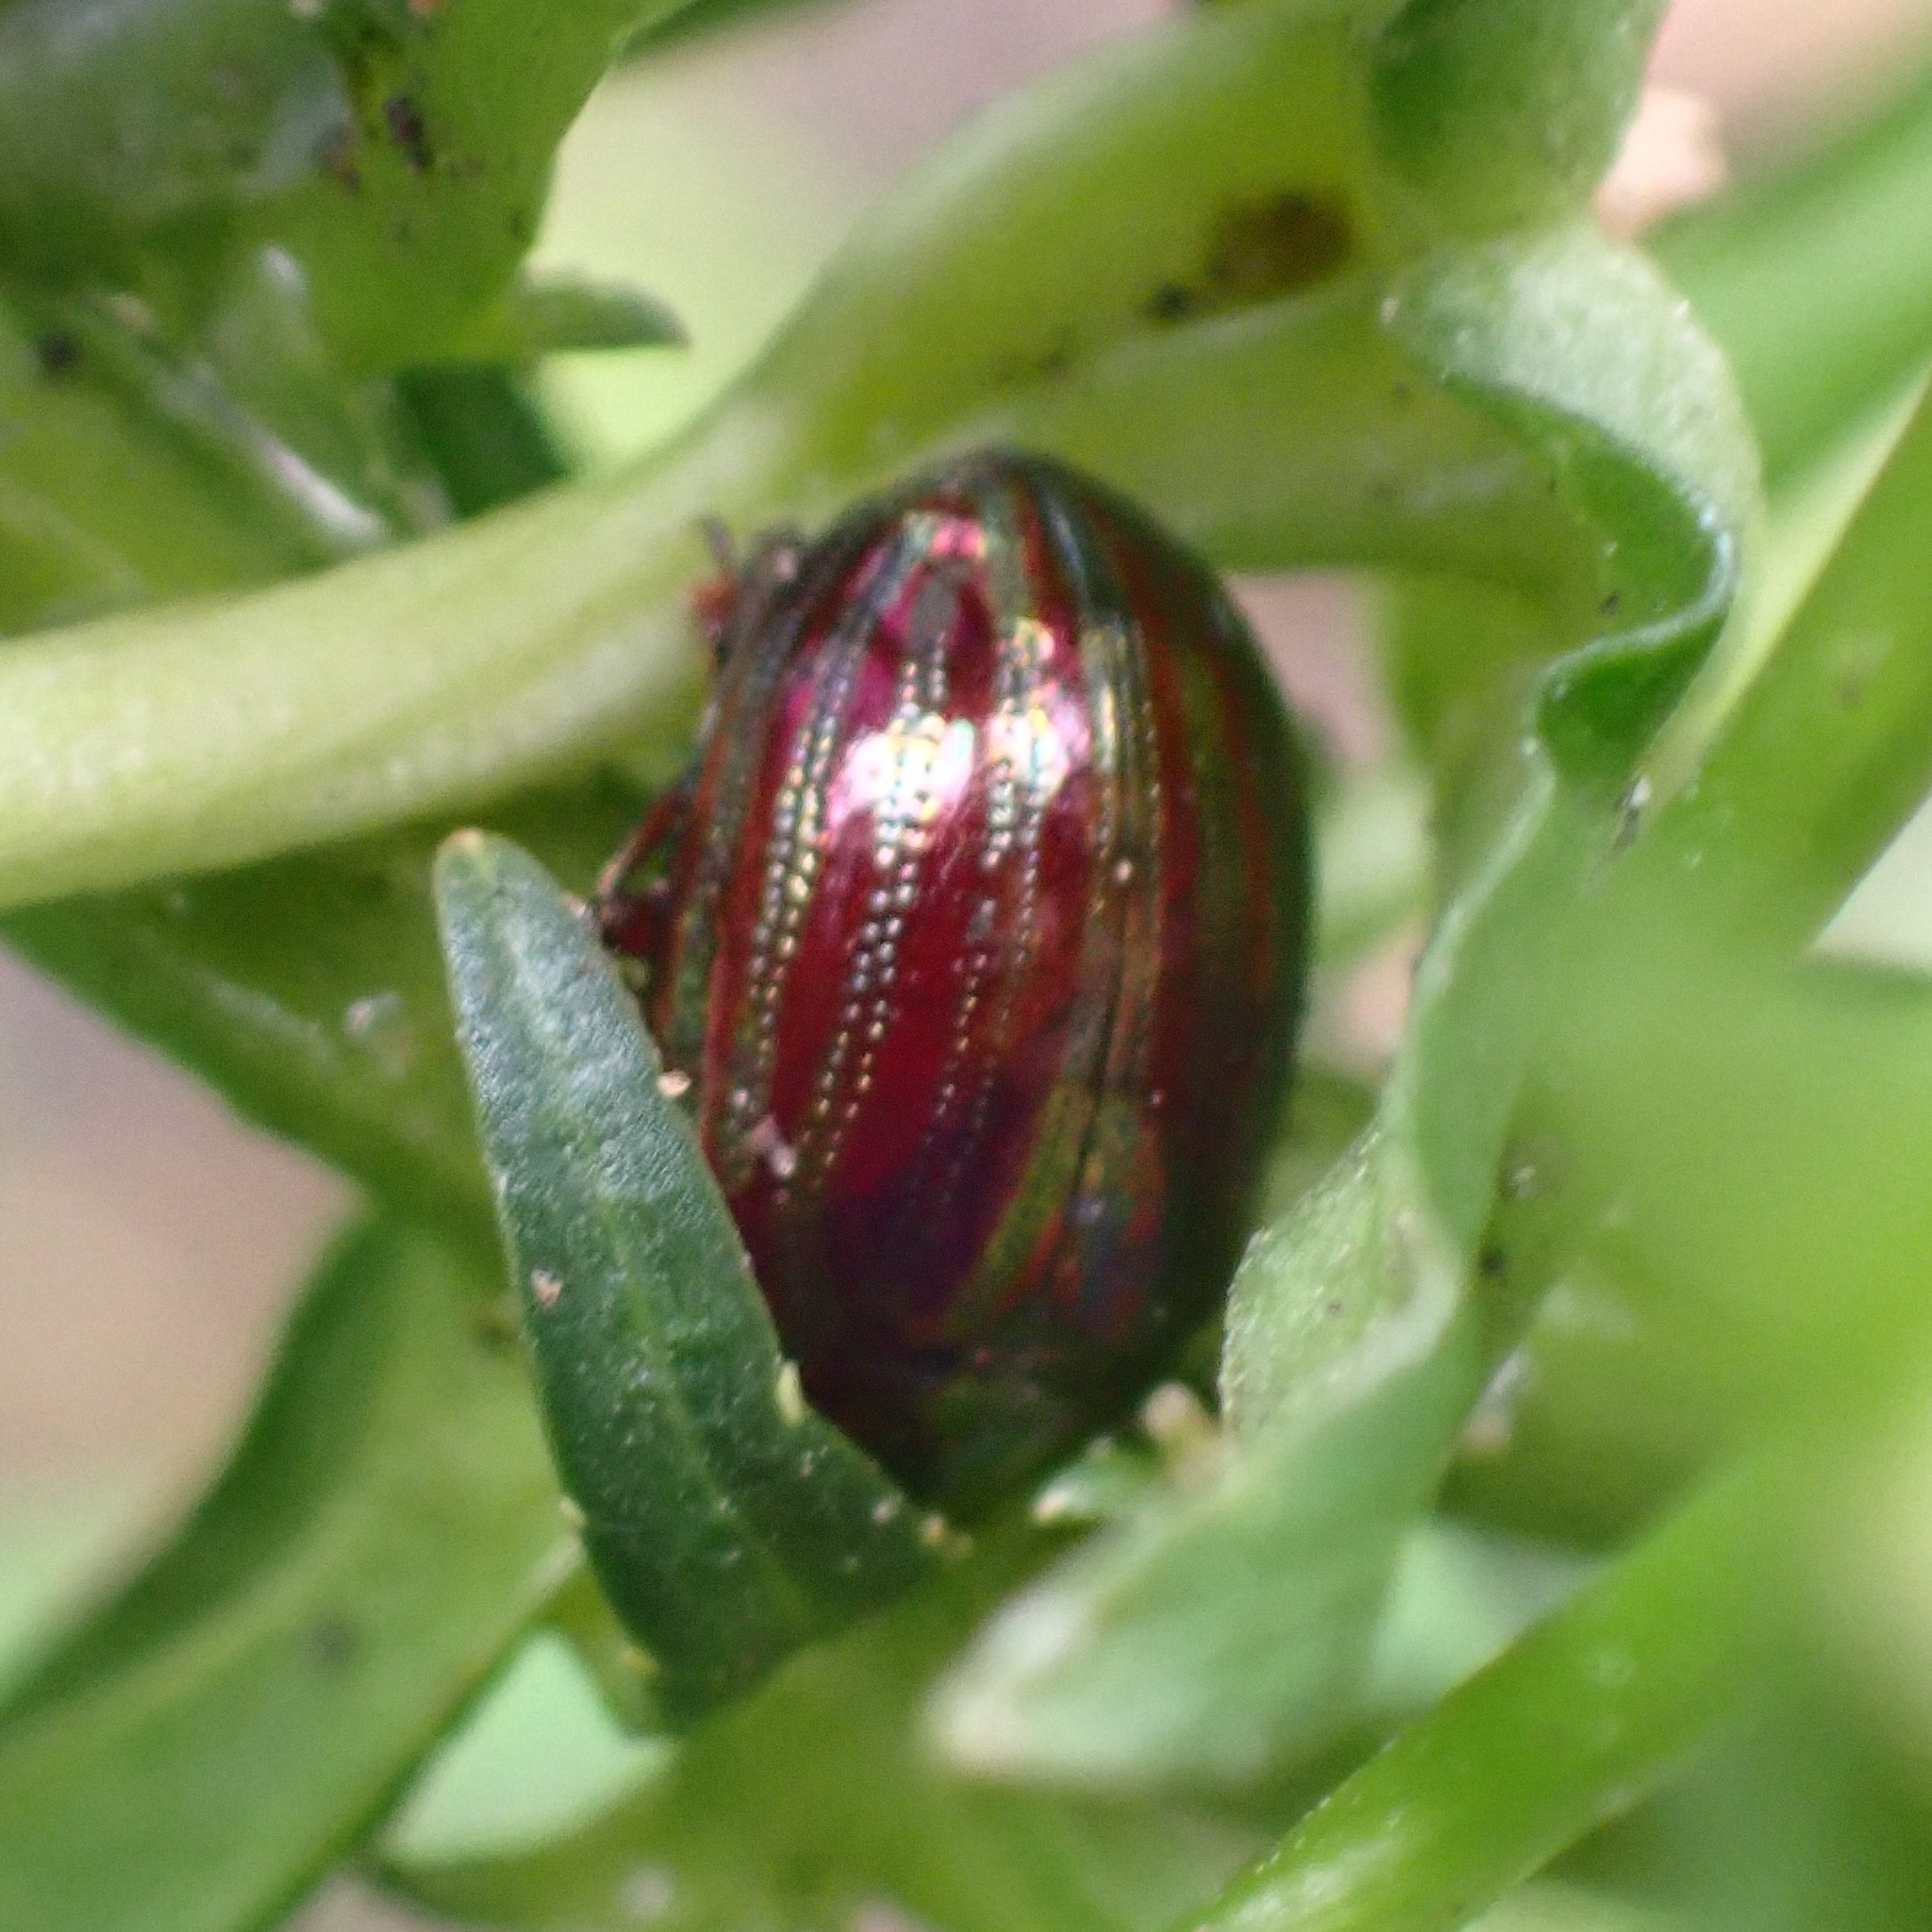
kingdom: Animalia
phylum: Arthropoda
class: Insecta
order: Coleoptera
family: Chrysomelidae
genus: Chrysolina
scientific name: Chrysolina americana
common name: Rosemary beetle
